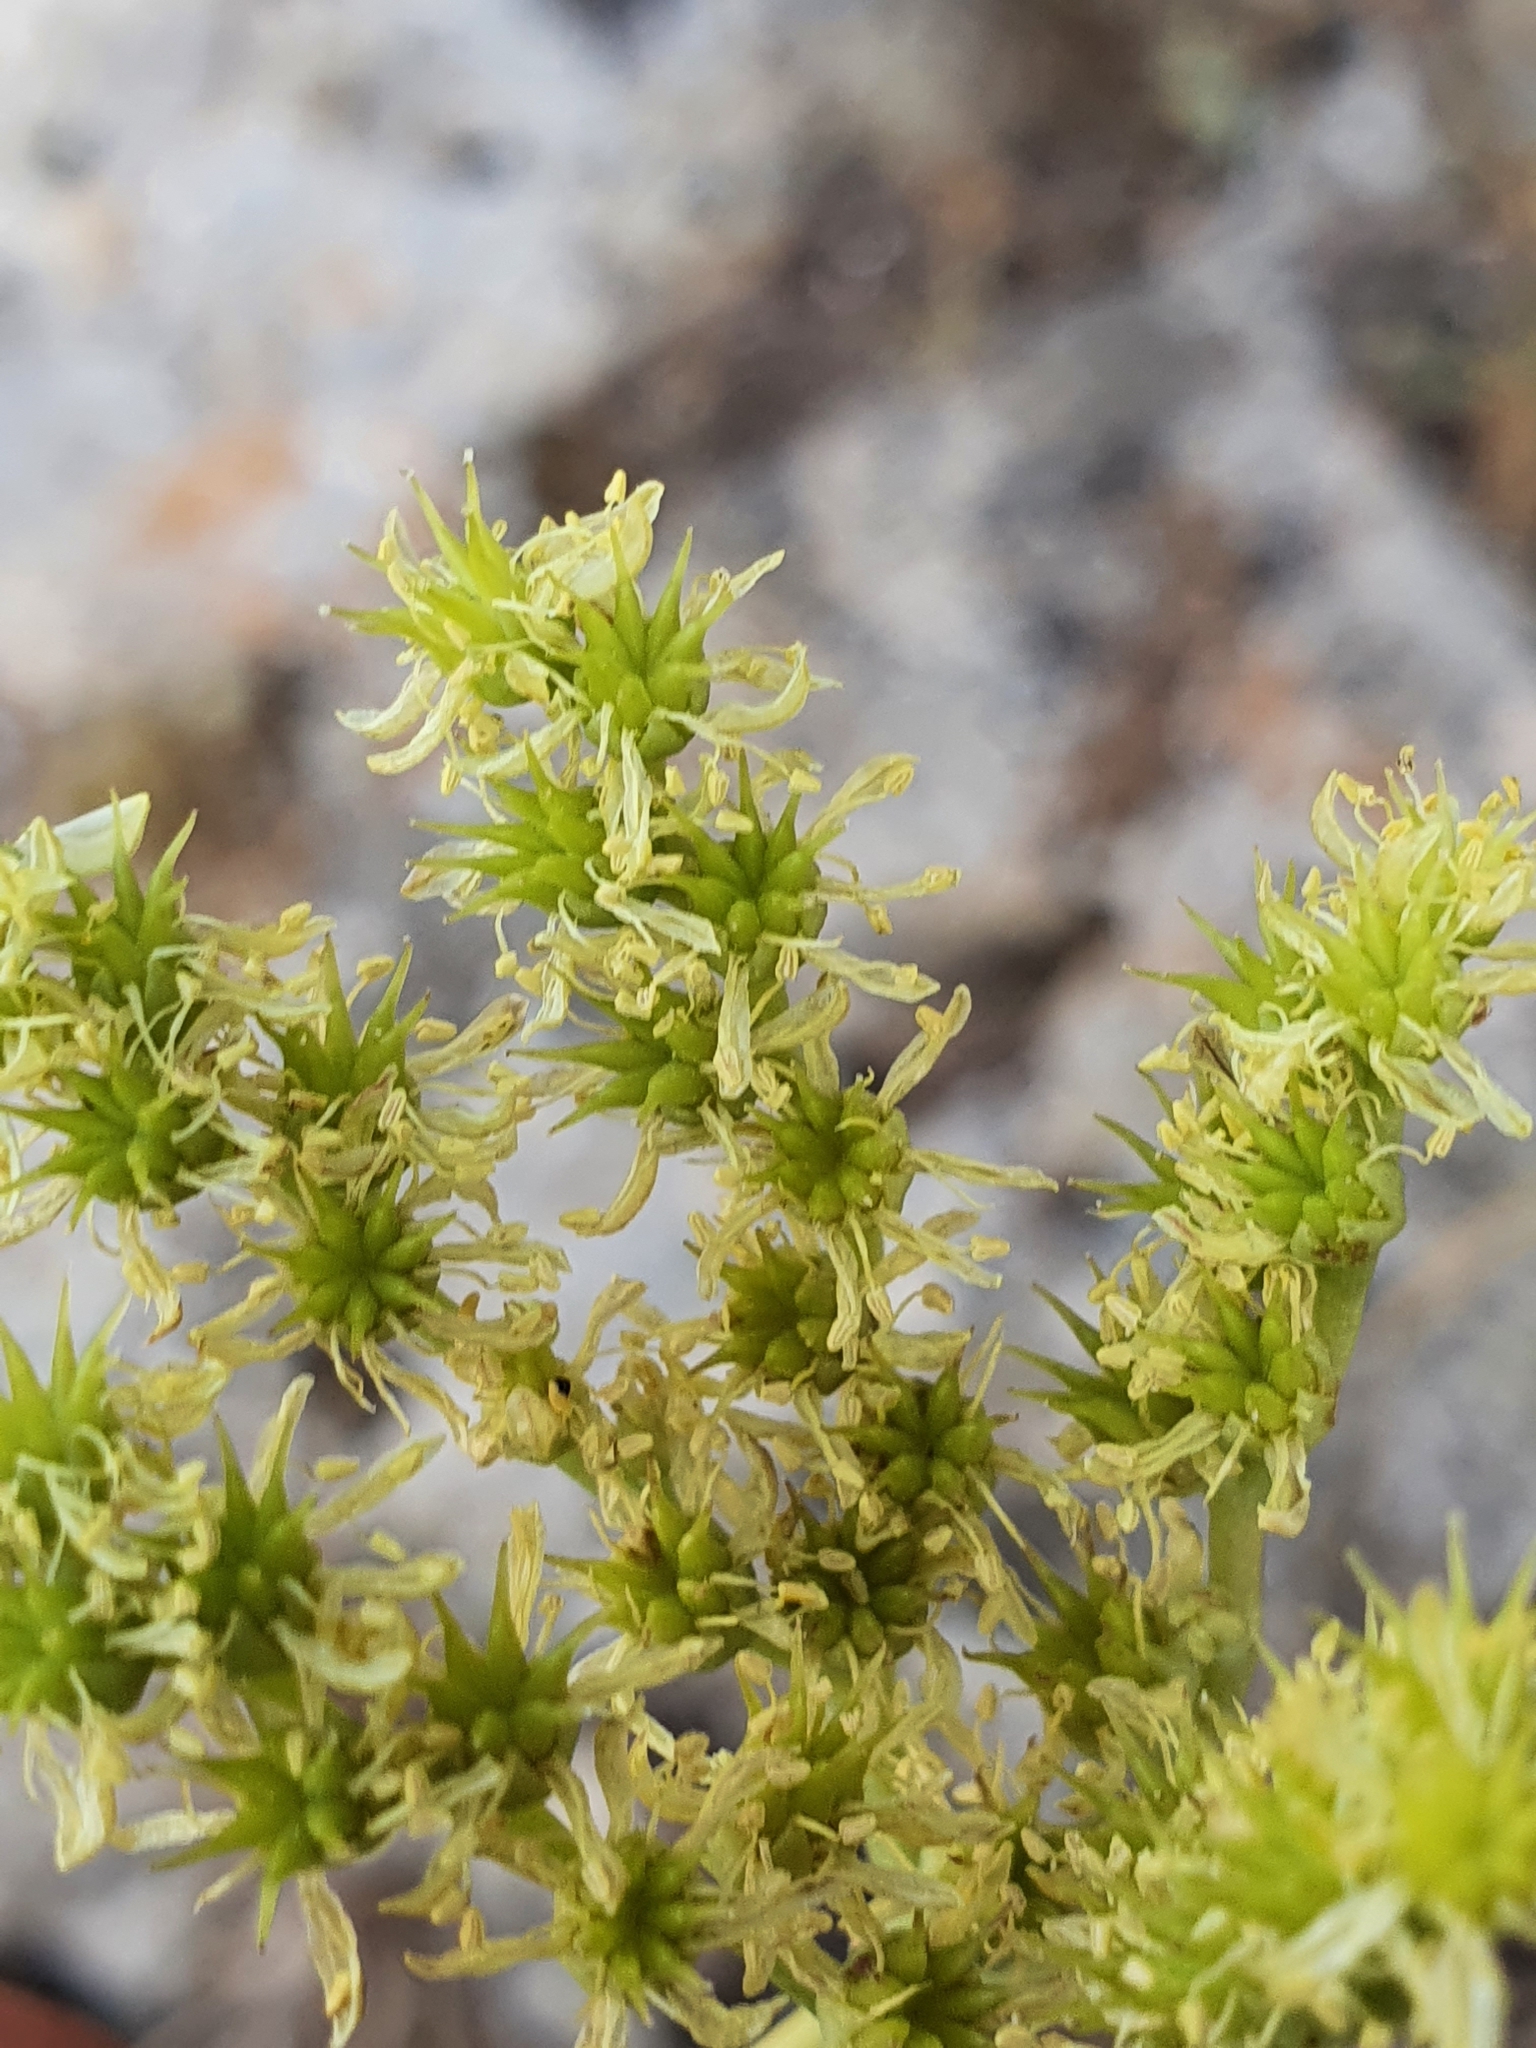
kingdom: Plantae
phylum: Tracheophyta
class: Magnoliopsida
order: Saxifragales
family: Crassulaceae
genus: Petrosedum
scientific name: Petrosedum sediforme
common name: Pale stonecrop
